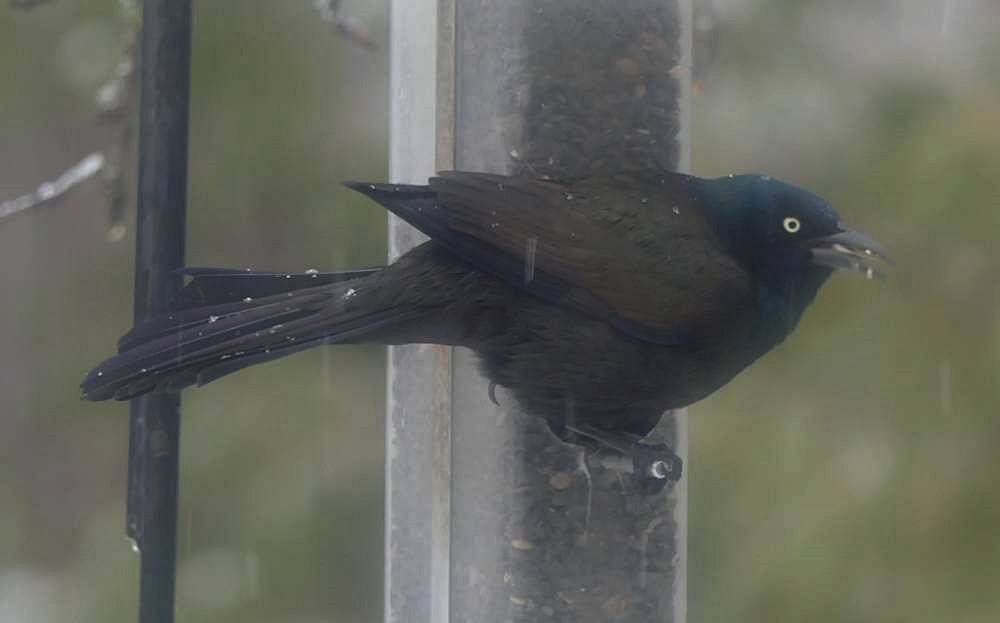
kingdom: Animalia
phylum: Chordata
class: Aves
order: Passeriformes
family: Icteridae
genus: Quiscalus
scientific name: Quiscalus quiscula
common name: Common grackle
